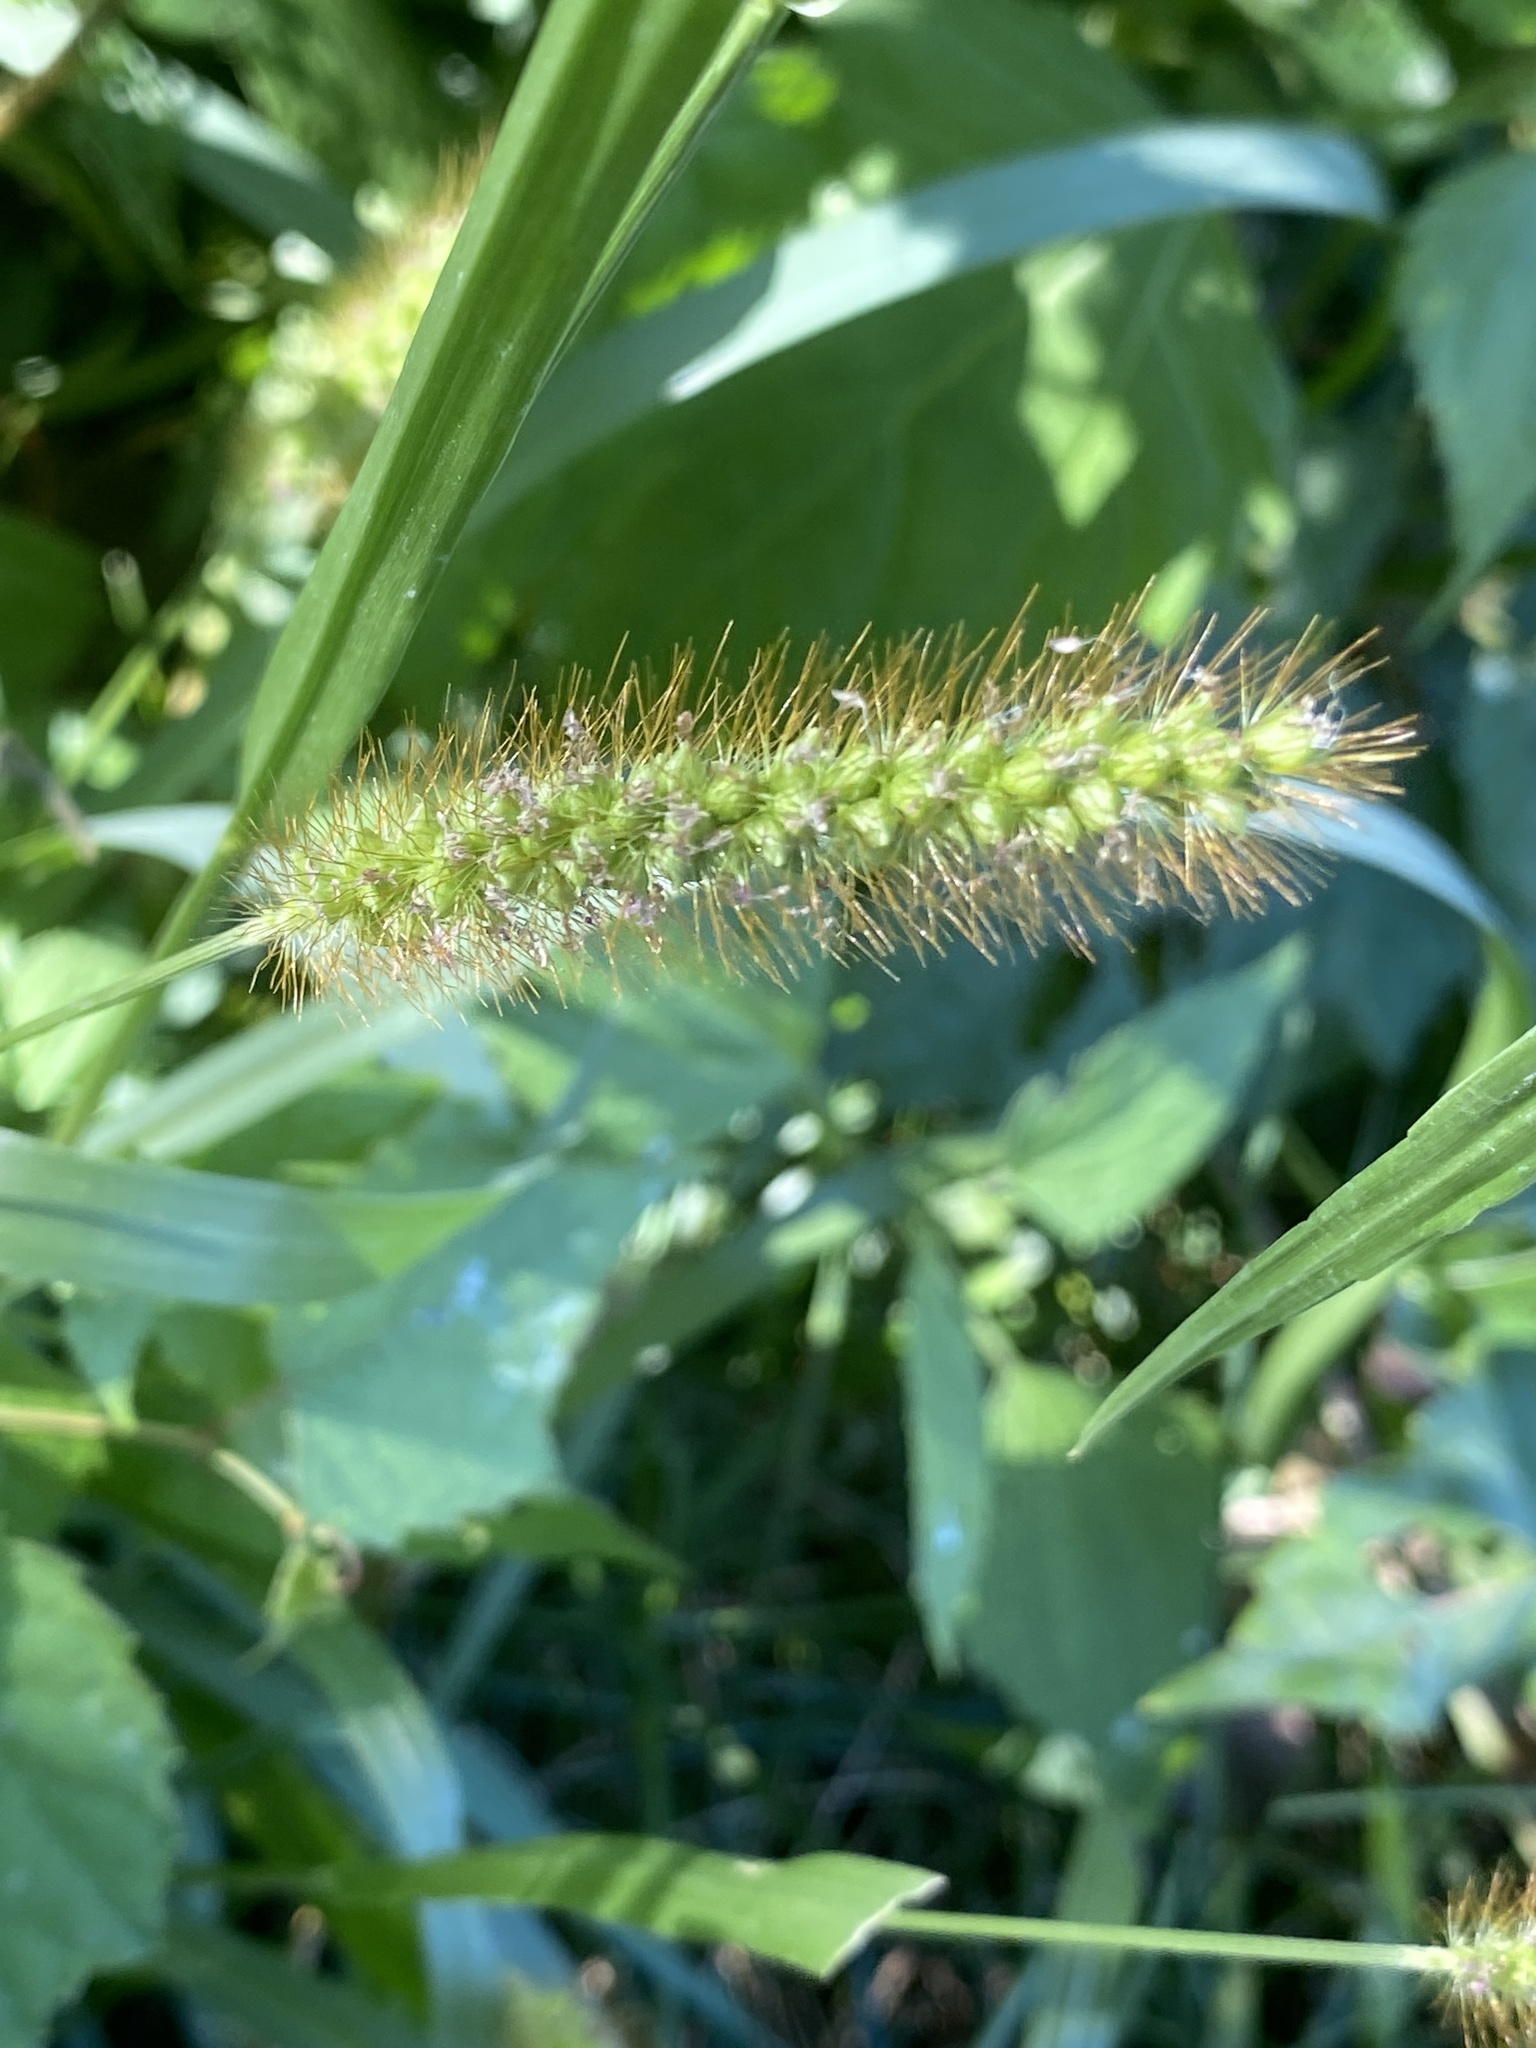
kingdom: Plantae
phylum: Tracheophyta
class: Liliopsida
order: Poales
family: Poaceae
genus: Setaria
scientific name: Setaria pumila
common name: Yellow bristle-grass
